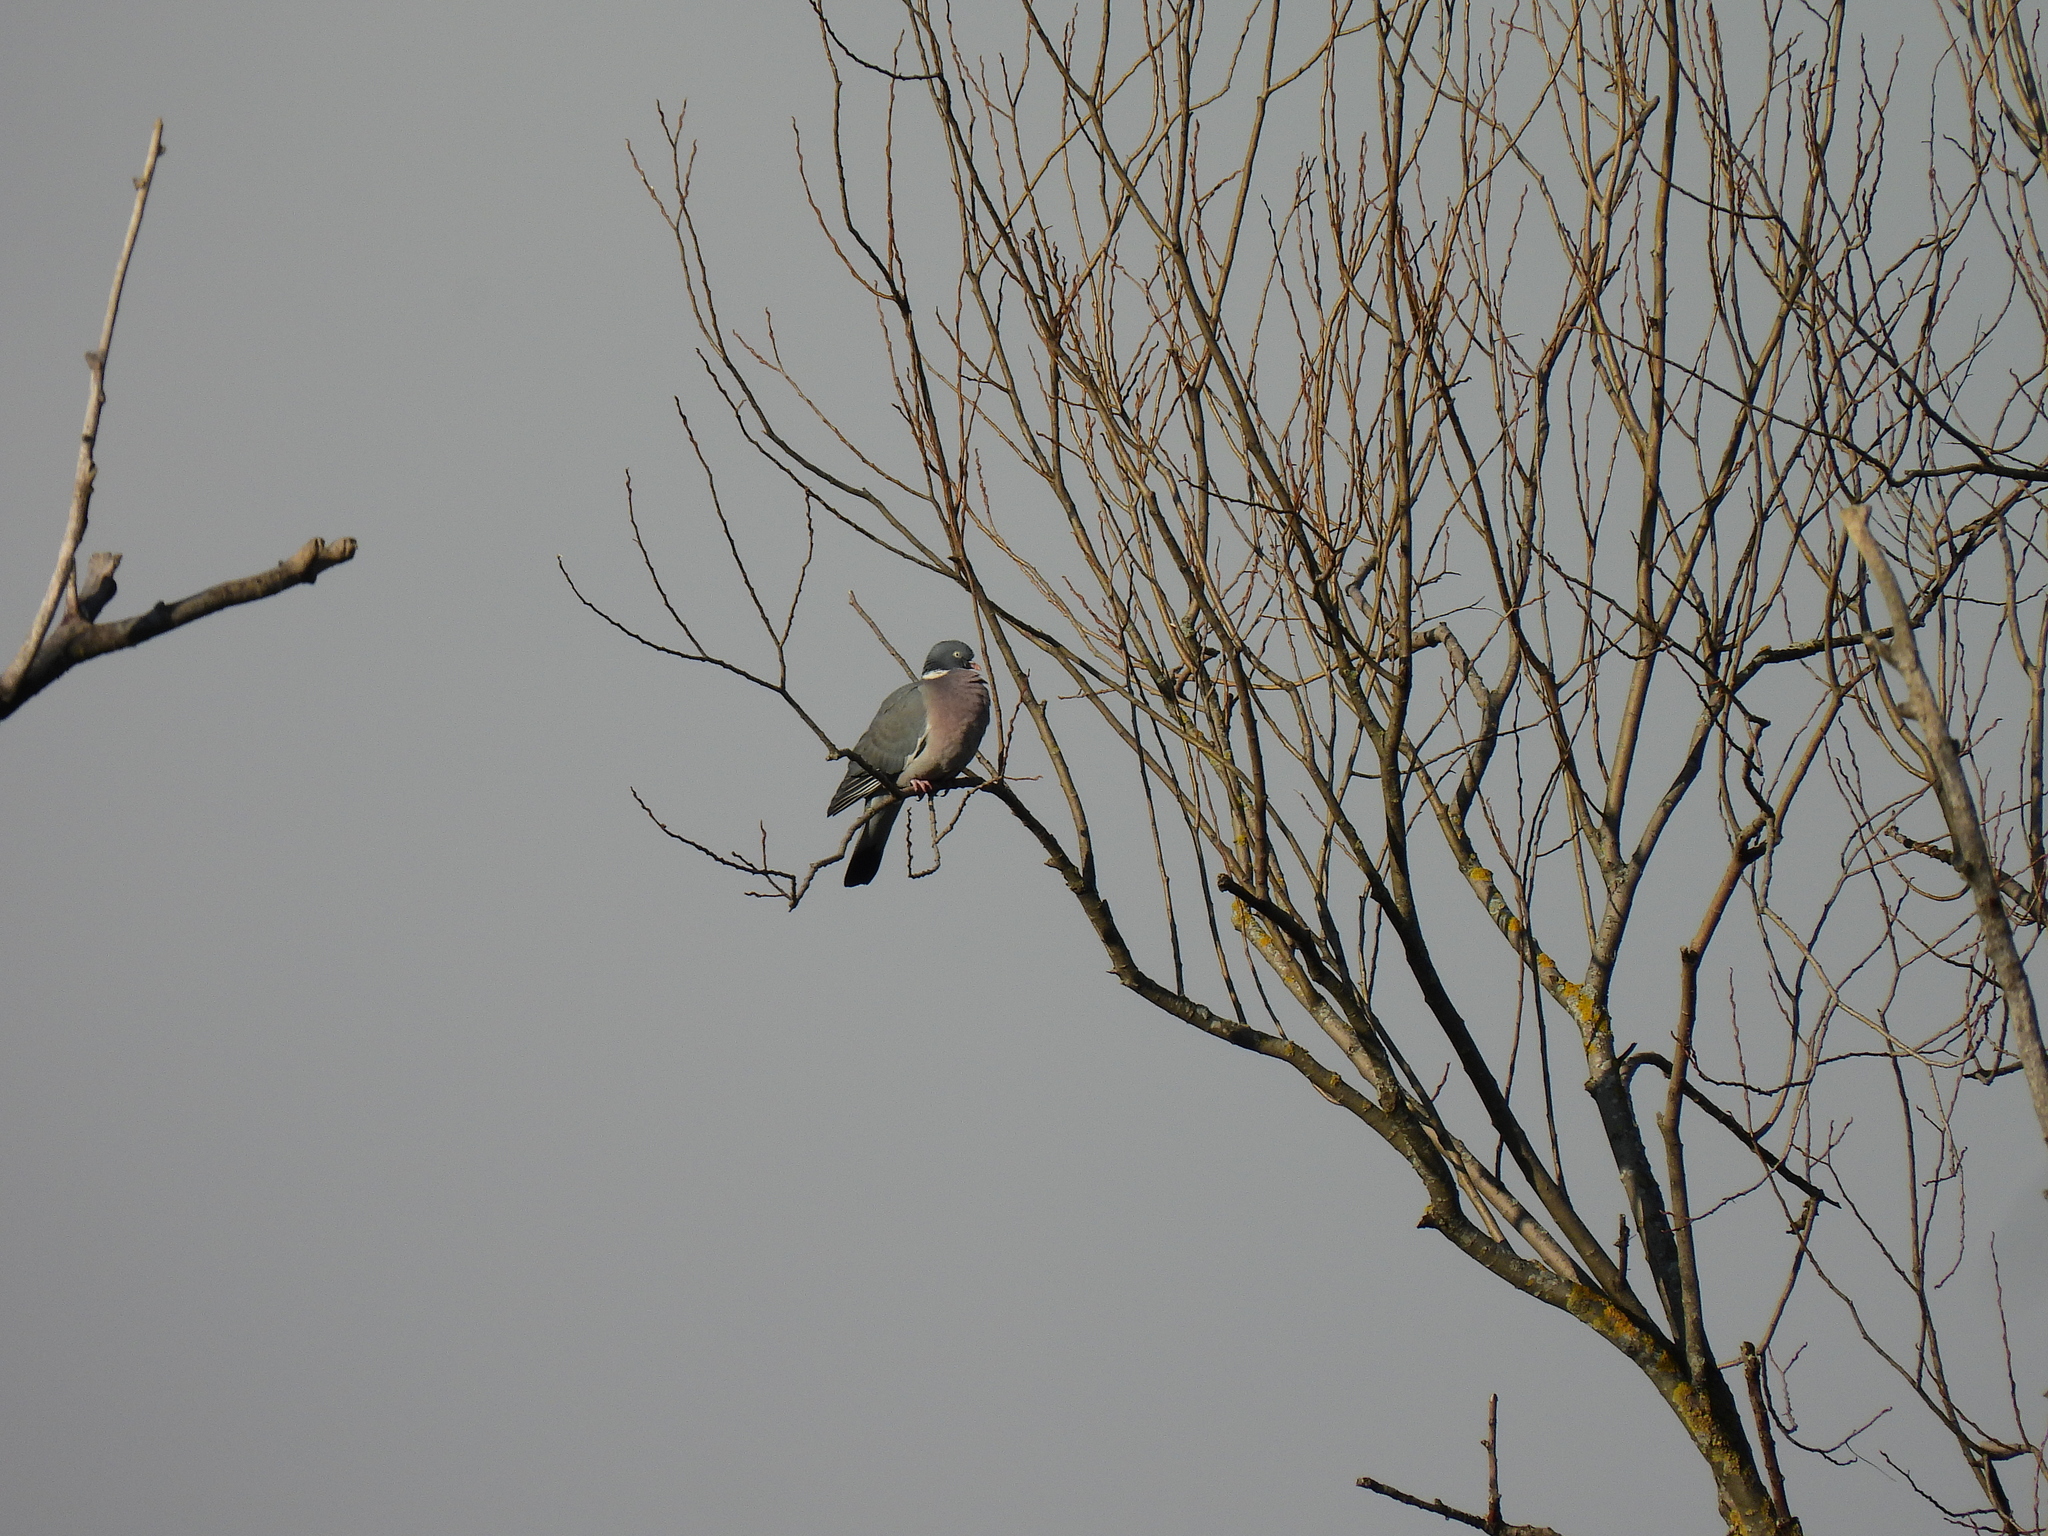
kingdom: Animalia
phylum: Chordata
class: Aves
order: Columbiformes
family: Columbidae
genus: Columba
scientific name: Columba palumbus
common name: Common wood pigeon
